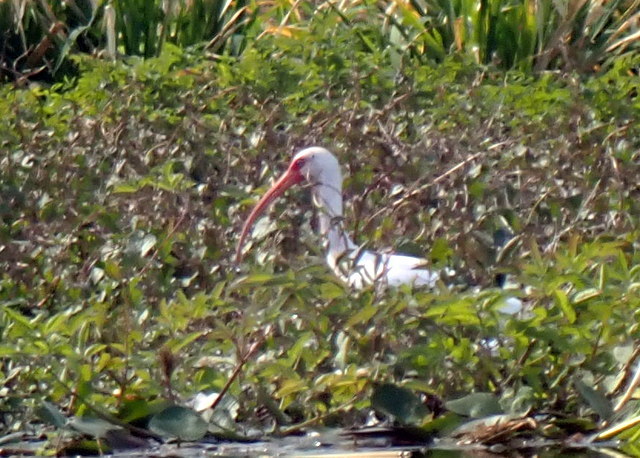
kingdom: Animalia
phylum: Chordata
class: Aves
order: Pelecaniformes
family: Threskiornithidae
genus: Eudocimus
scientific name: Eudocimus albus
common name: White ibis
